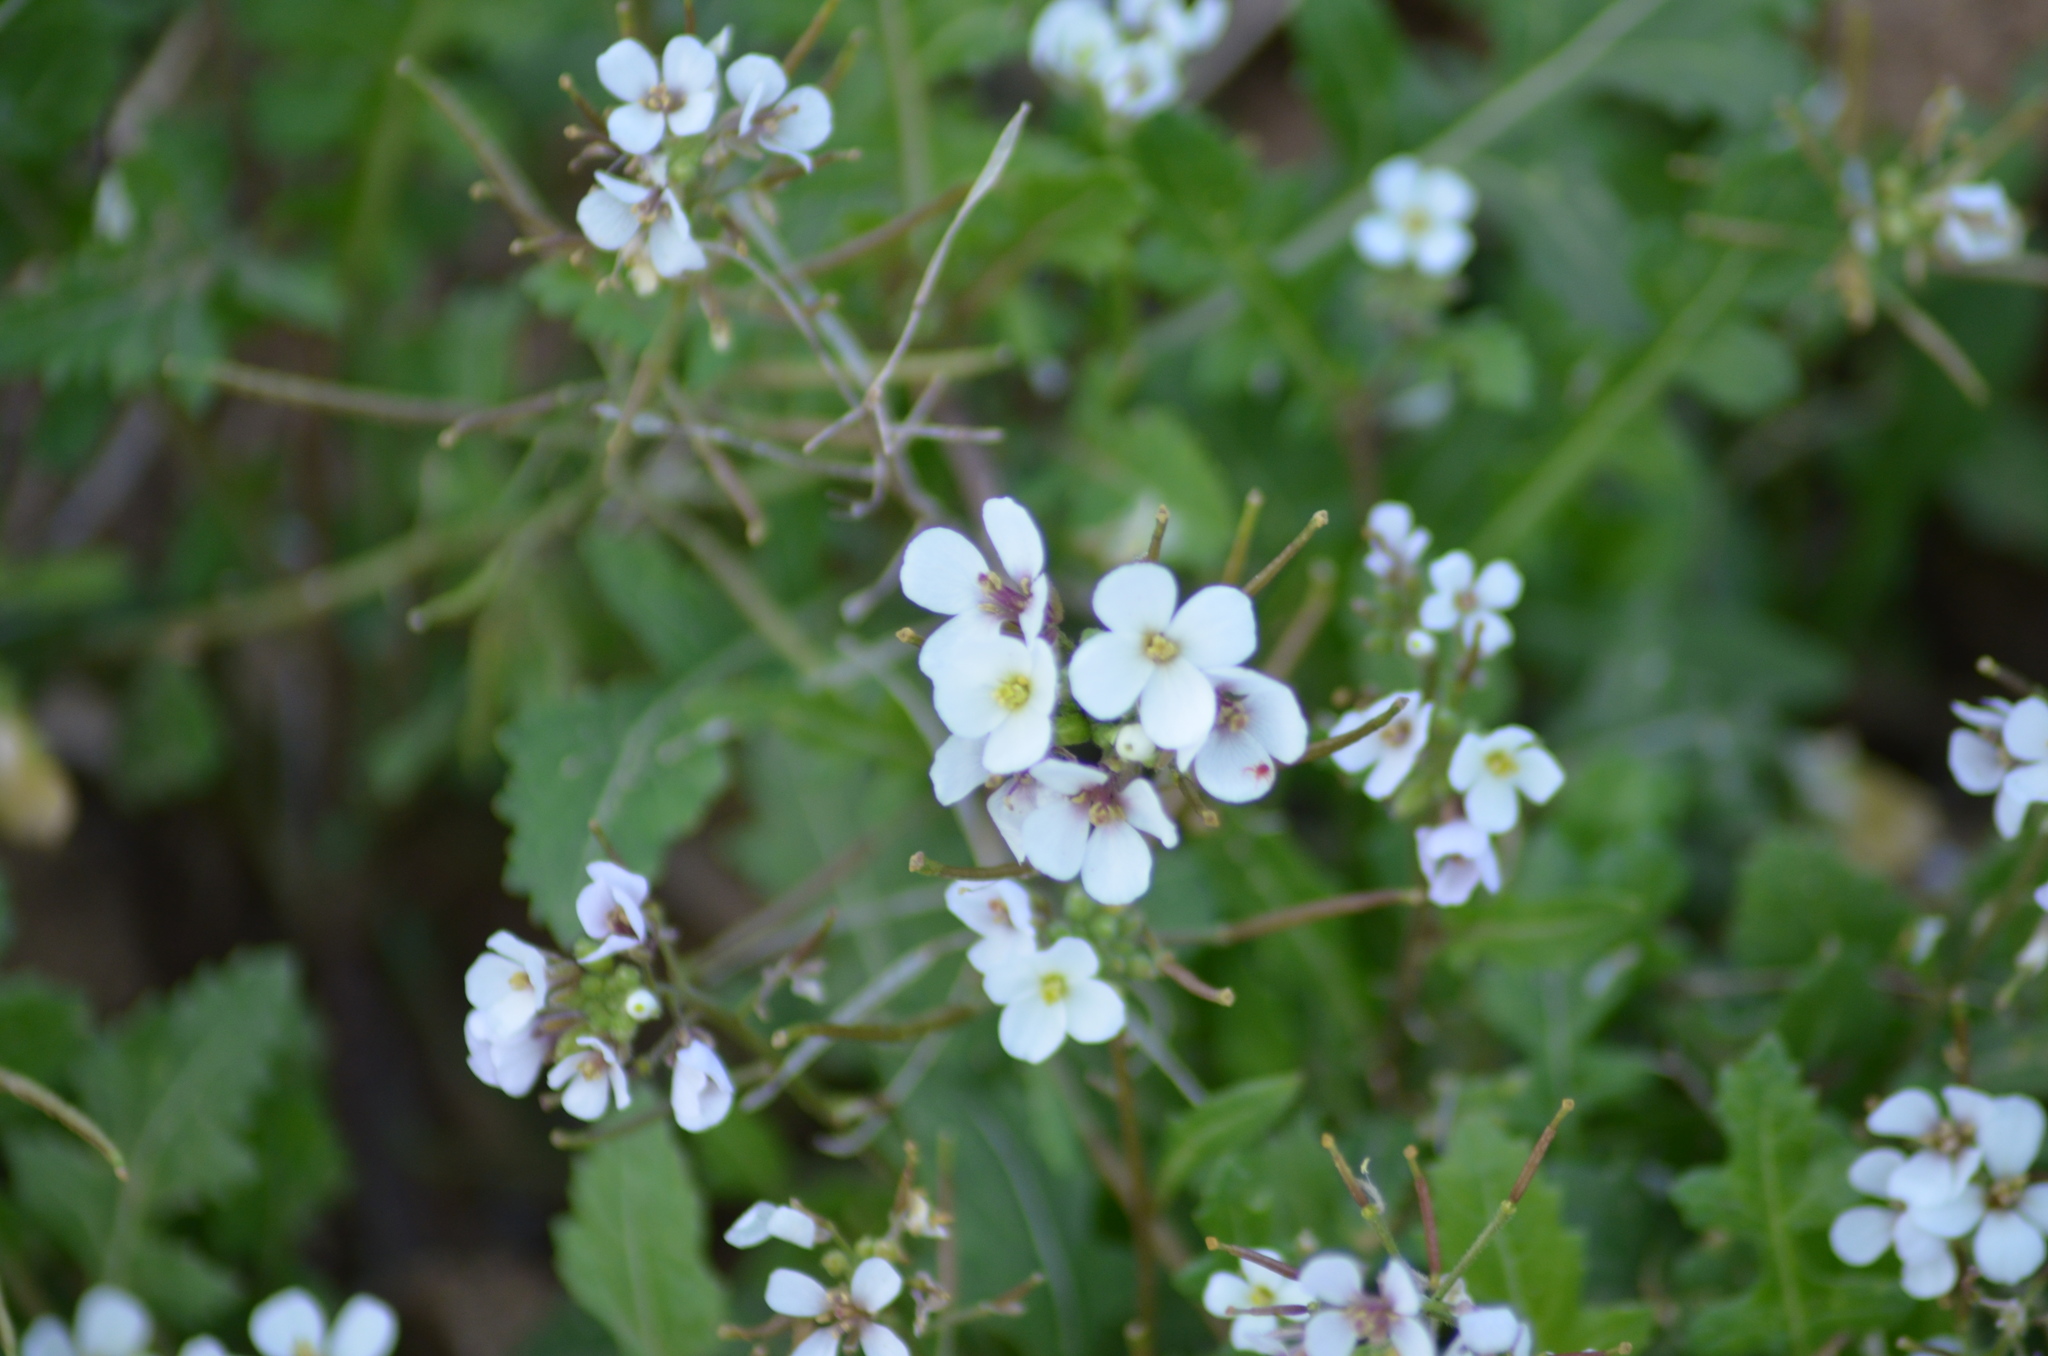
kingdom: Plantae
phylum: Tracheophyta
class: Magnoliopsida
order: Brassicales
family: Brassicaceae
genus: Diplotaxis
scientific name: Diplotaxis erucoides
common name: White rocket
